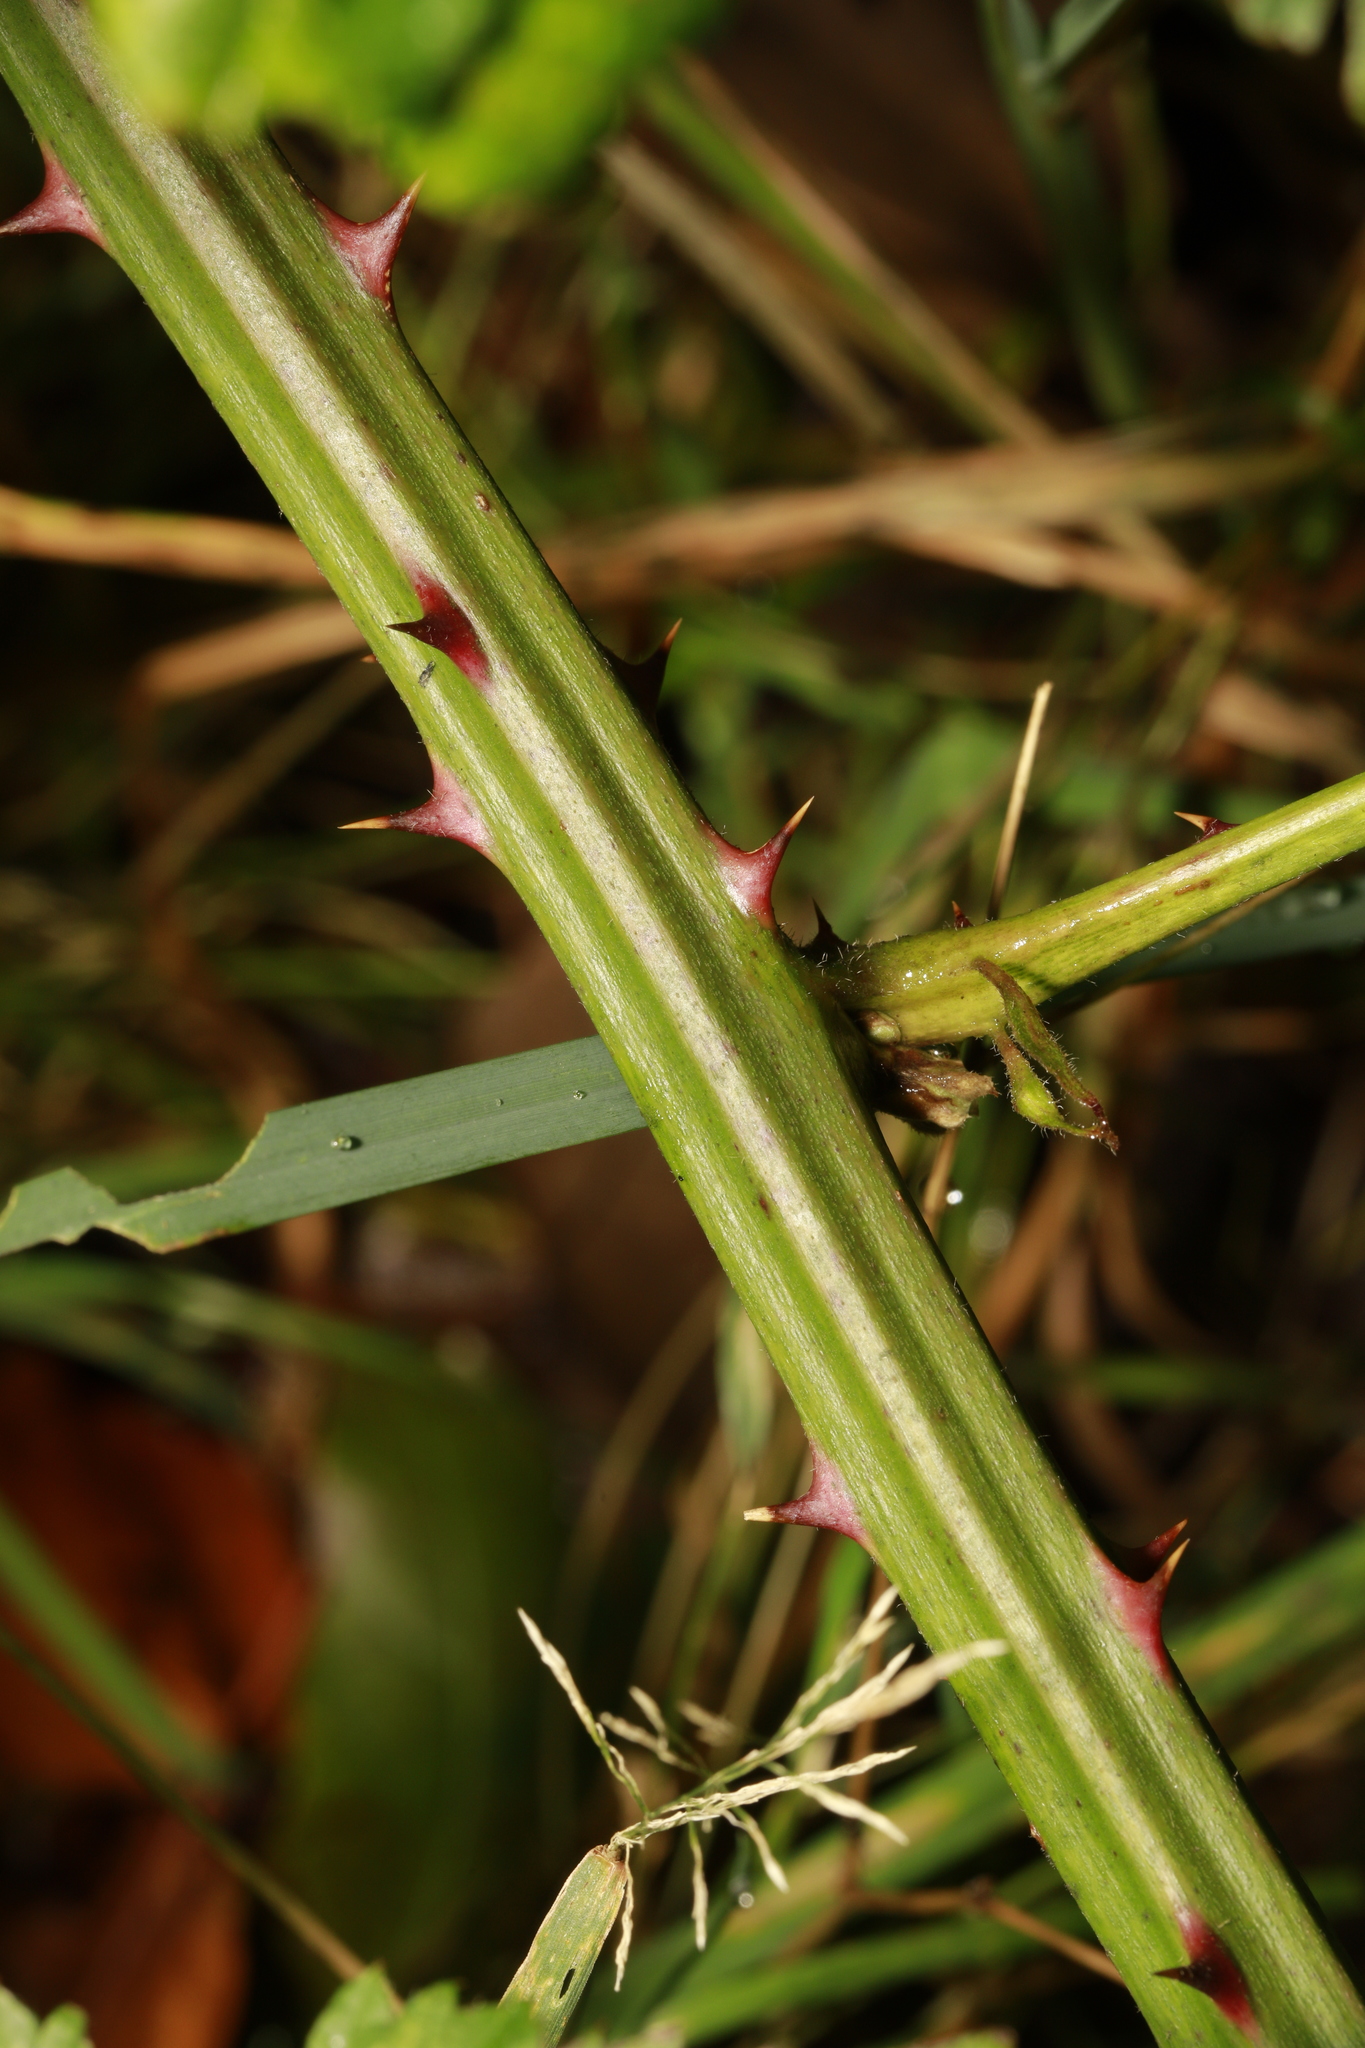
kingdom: Plantae
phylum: Tracheophyta
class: Magnoliopsida
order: Rosales
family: Rosaceae
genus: Rubus
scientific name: Rubus armeniacus
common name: Himalayan blackberry
